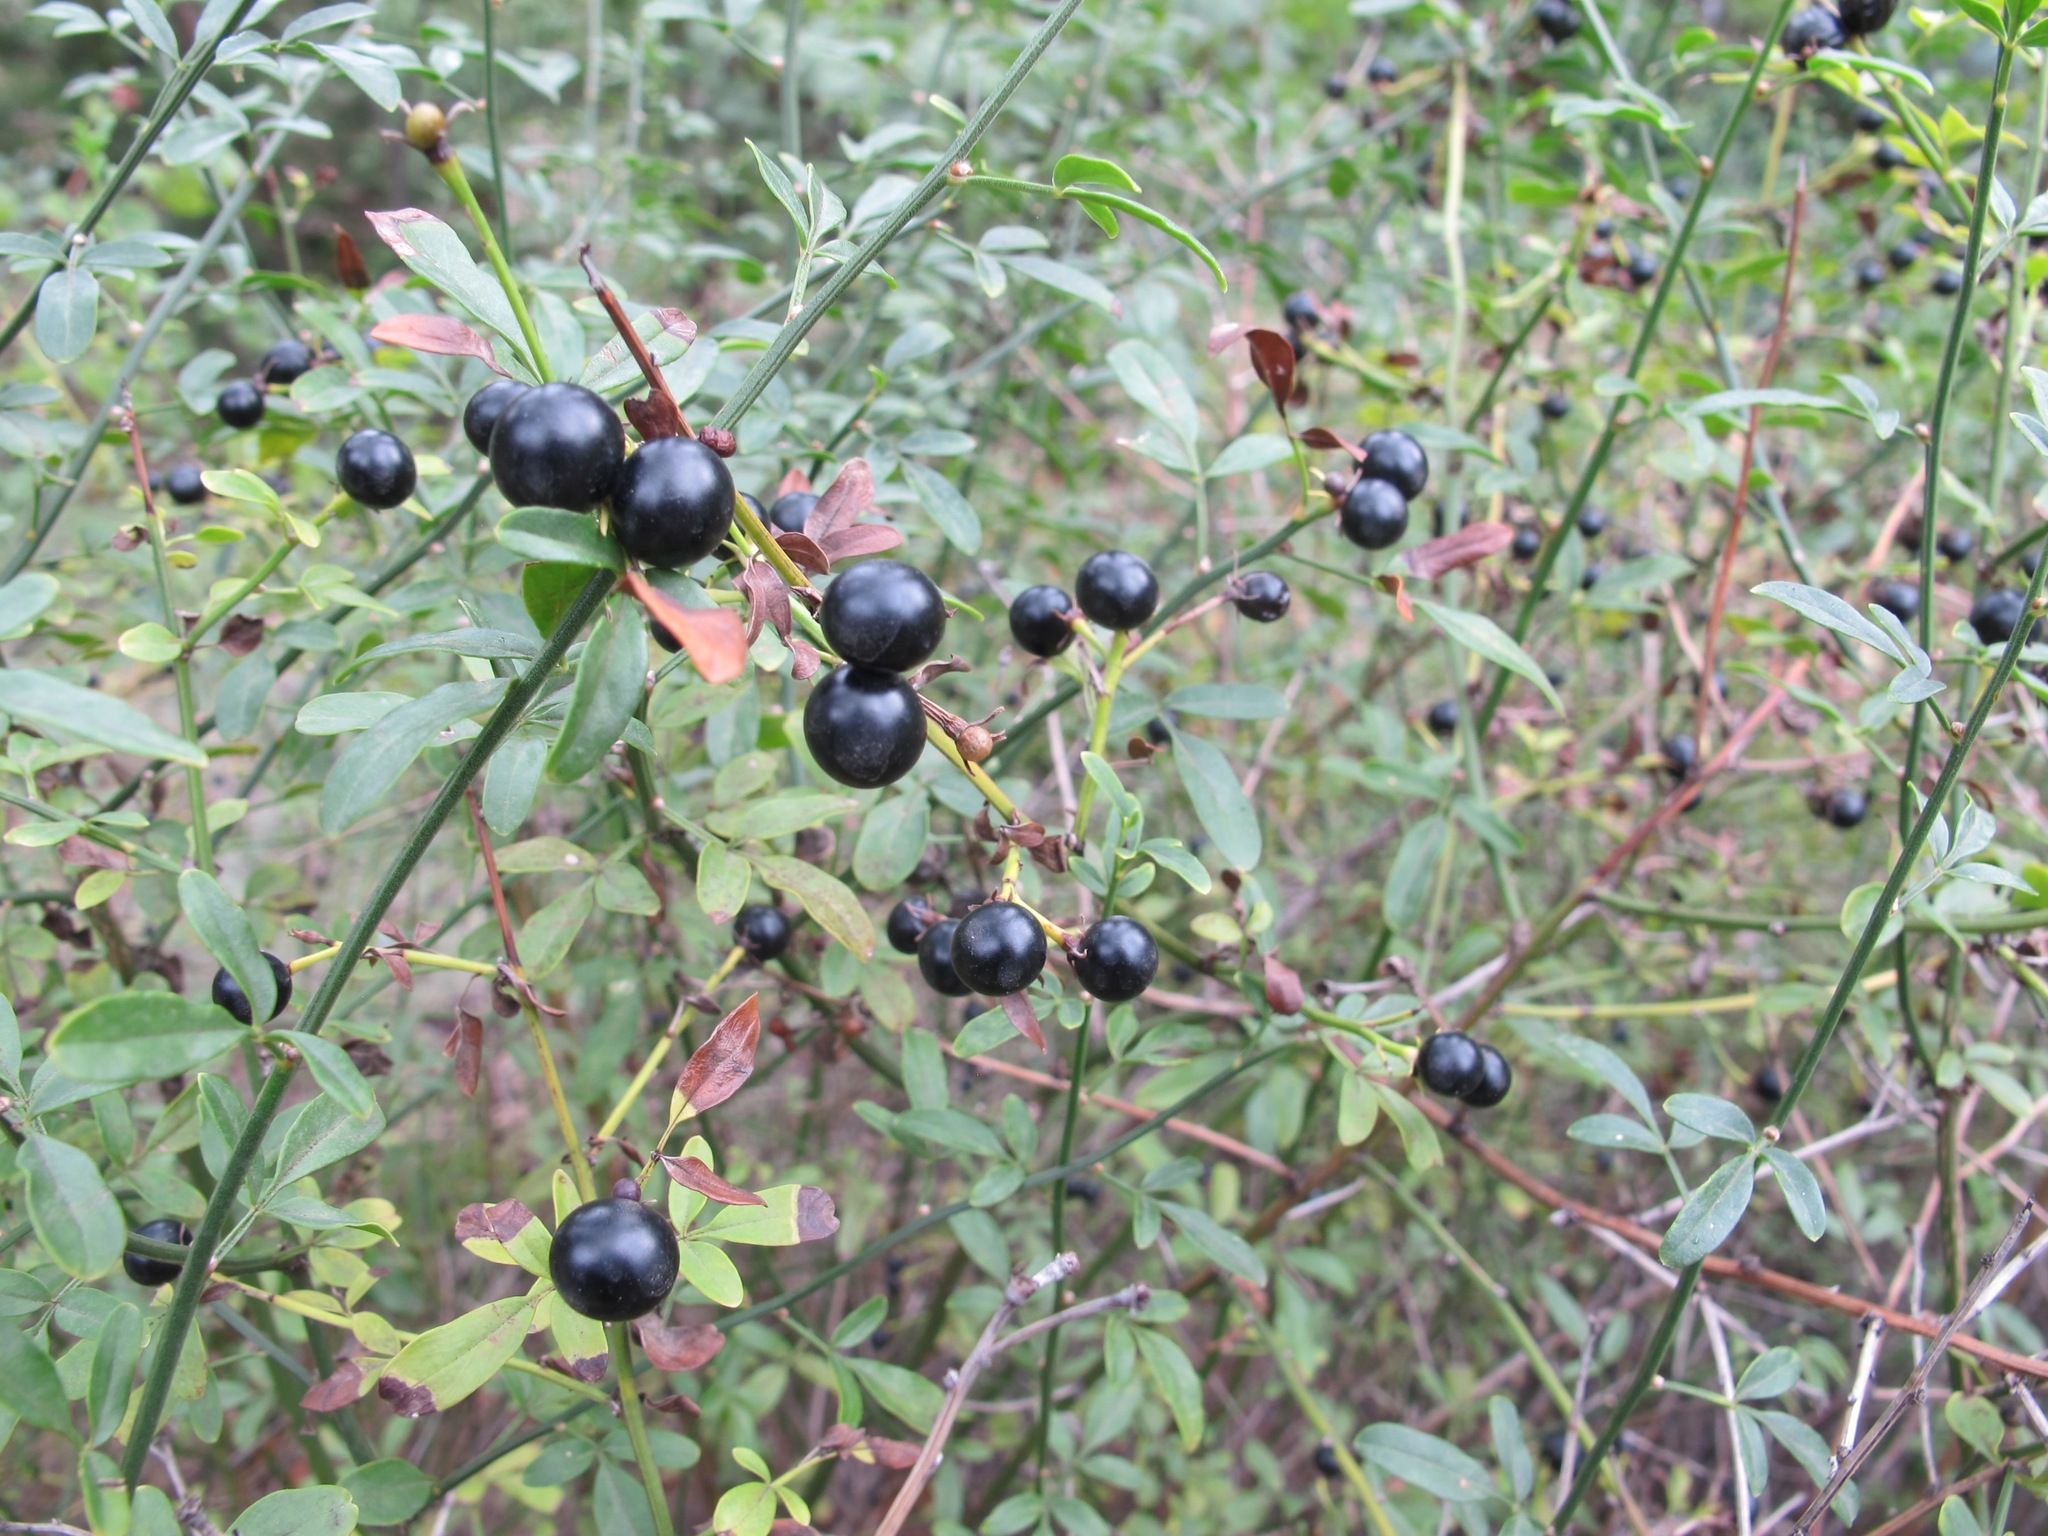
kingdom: Plantae
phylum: Tracheophyta
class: Magnoliopsida
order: Lamiales
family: Oleaceae
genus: Chrysojasminum
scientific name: Chrysojasminum fruticans
